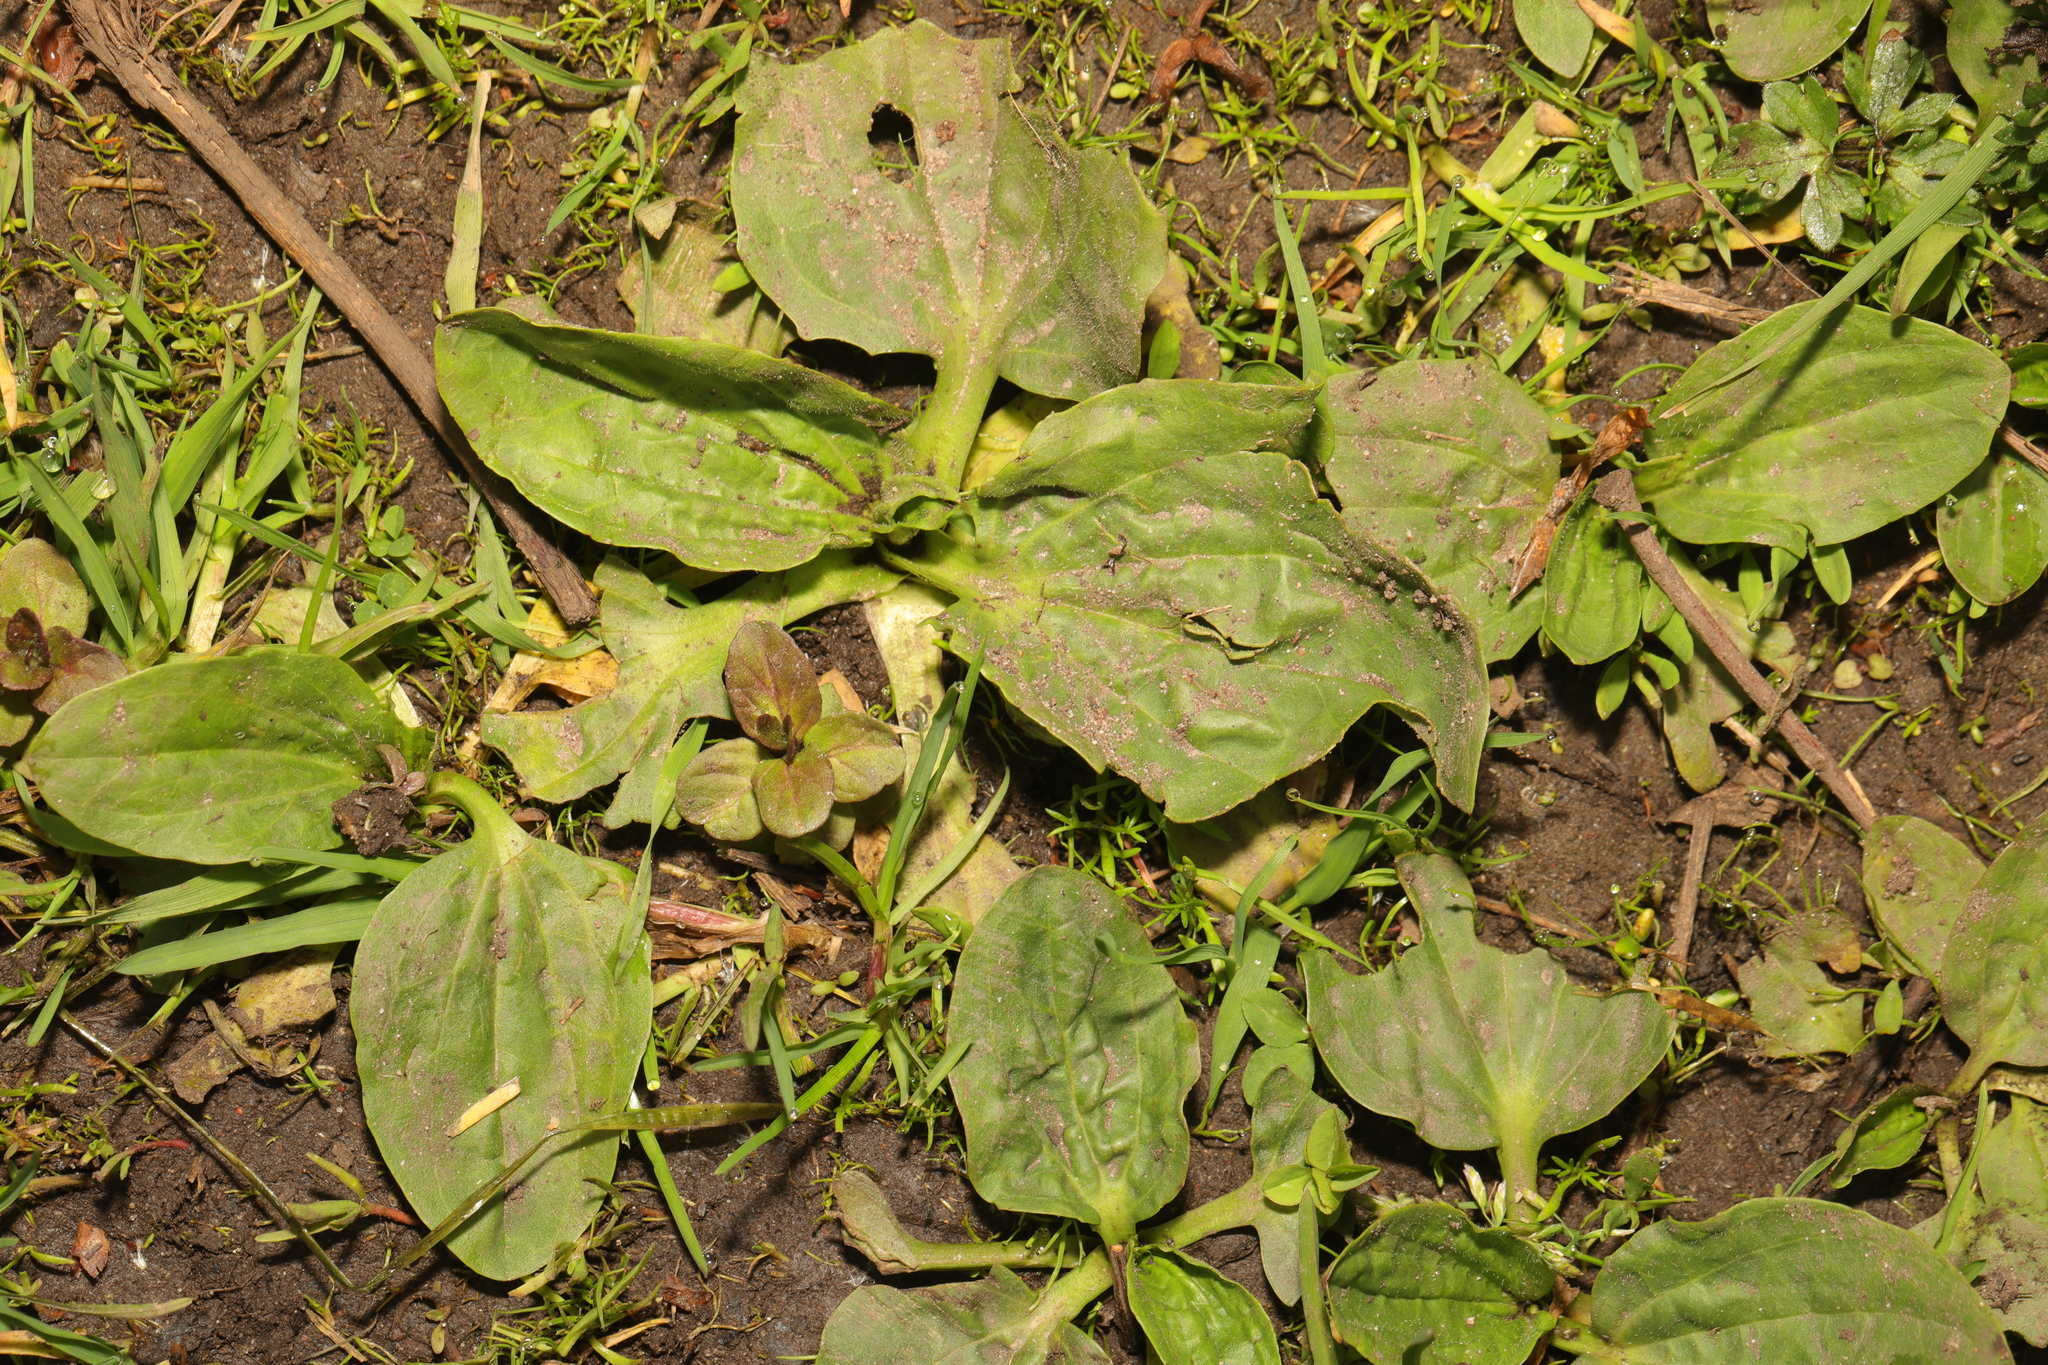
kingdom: Plantae
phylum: Tracheophyta
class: Magnoliopsida
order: Lamiales
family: Plantaginaceae
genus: Plantago
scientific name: Plantago major
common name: Common plantain
